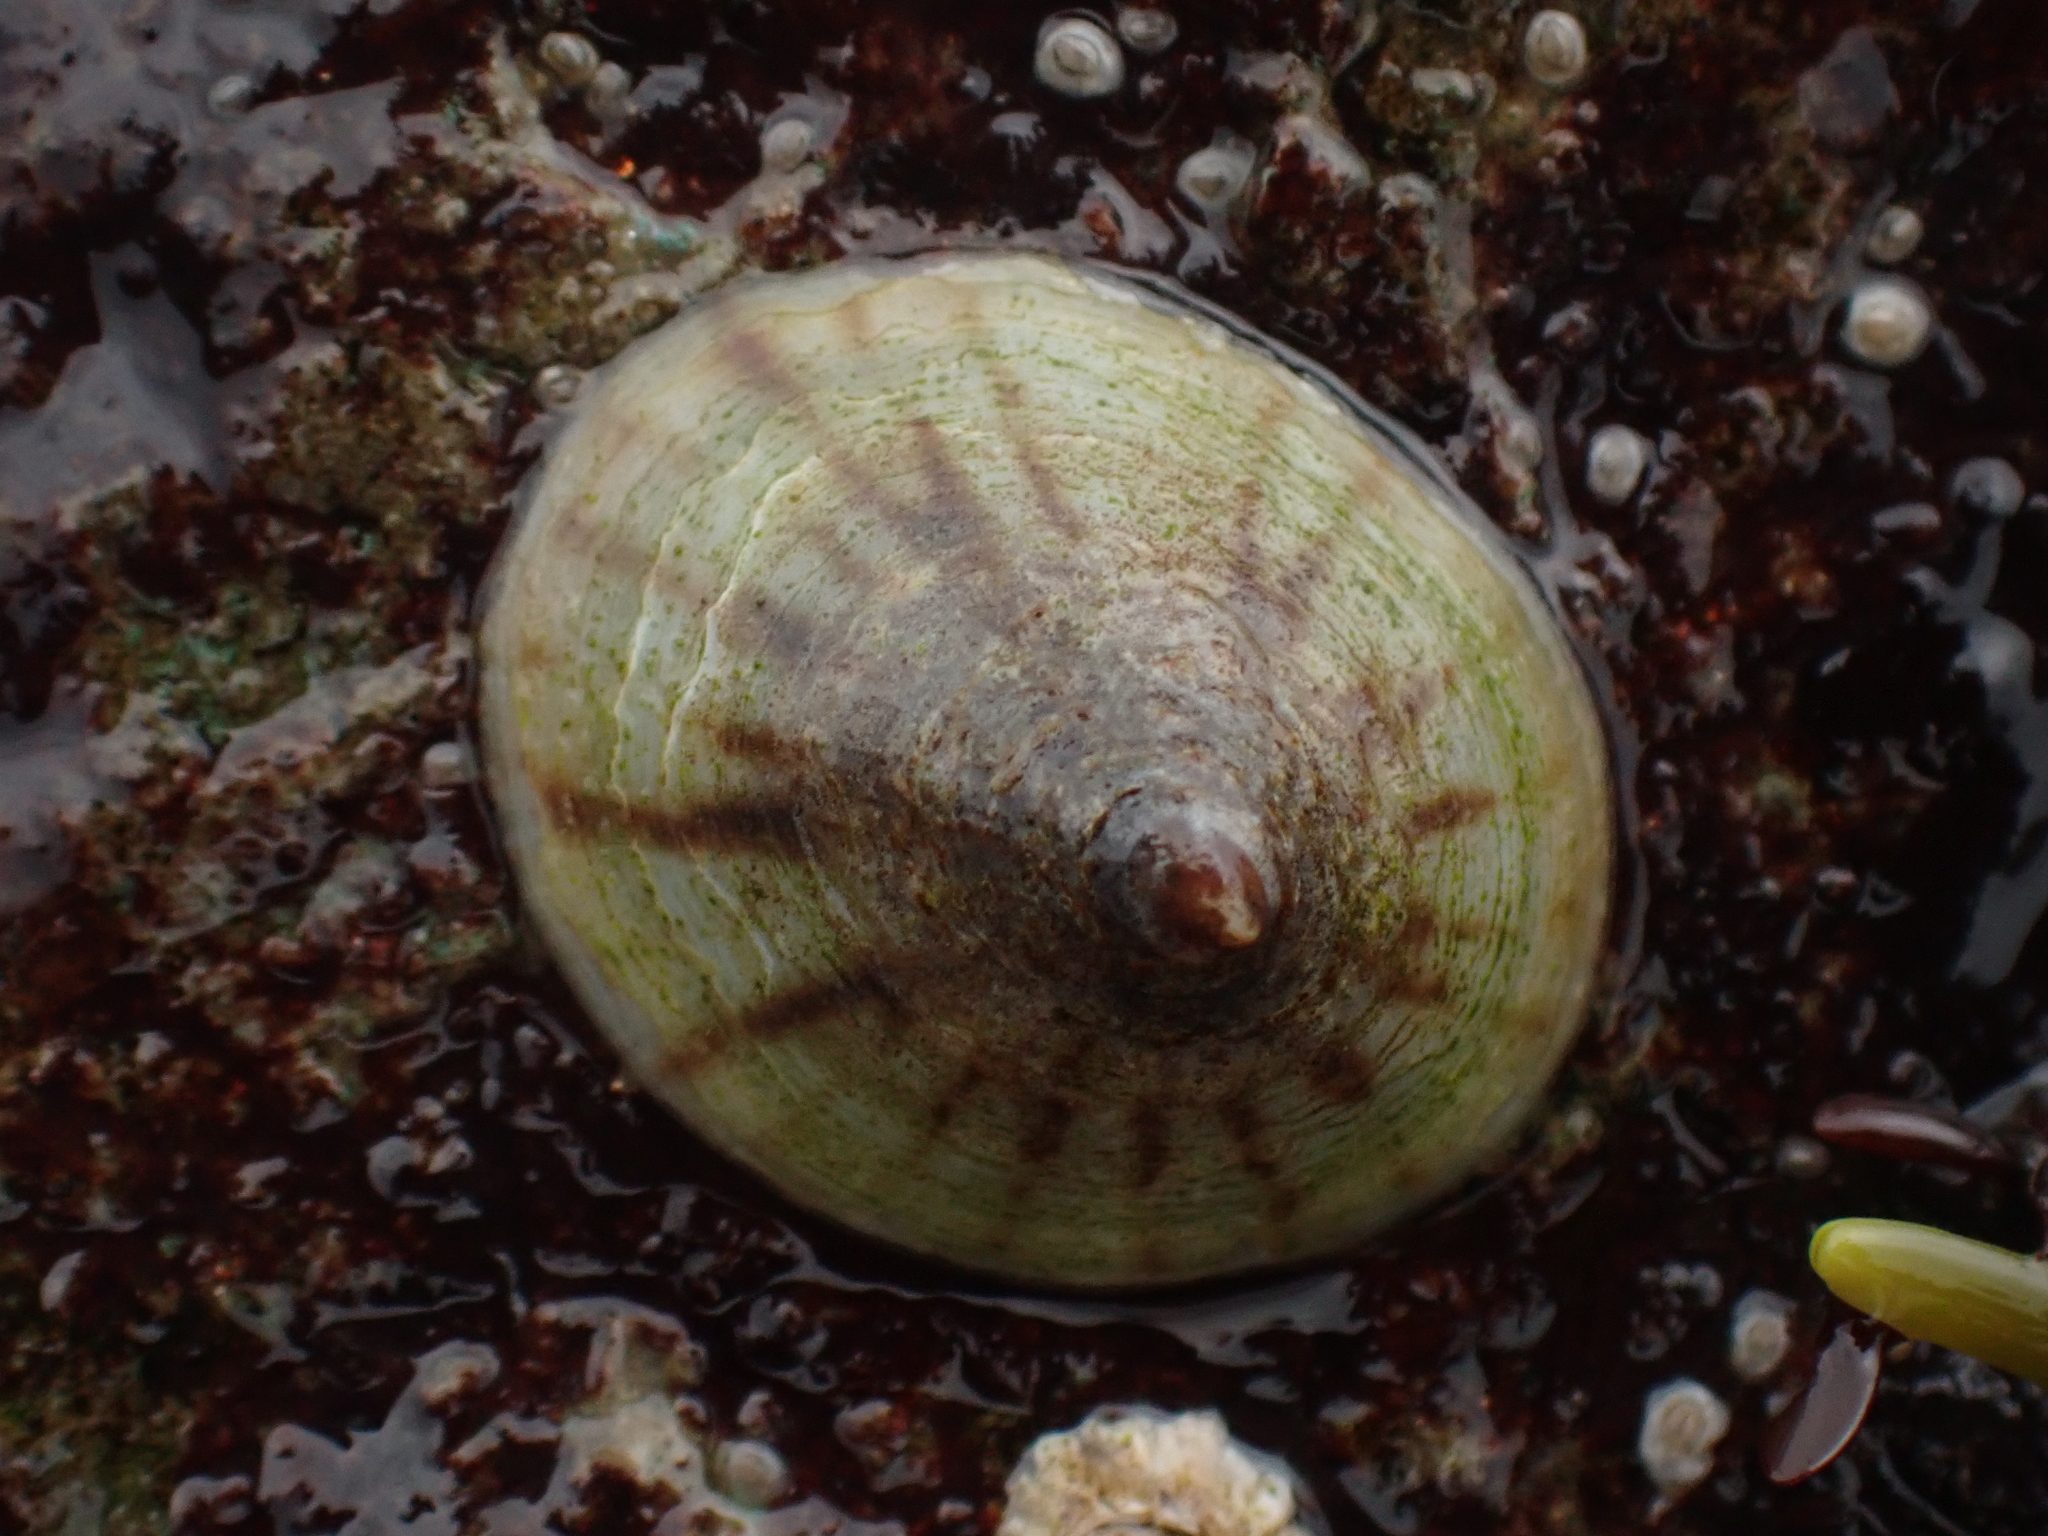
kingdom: Animalia
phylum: Mollusca
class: Gastropoda
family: Lottiidae
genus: Testudinalia
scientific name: Testudinalia testudinalis
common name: Common tortoiseshell limpet
